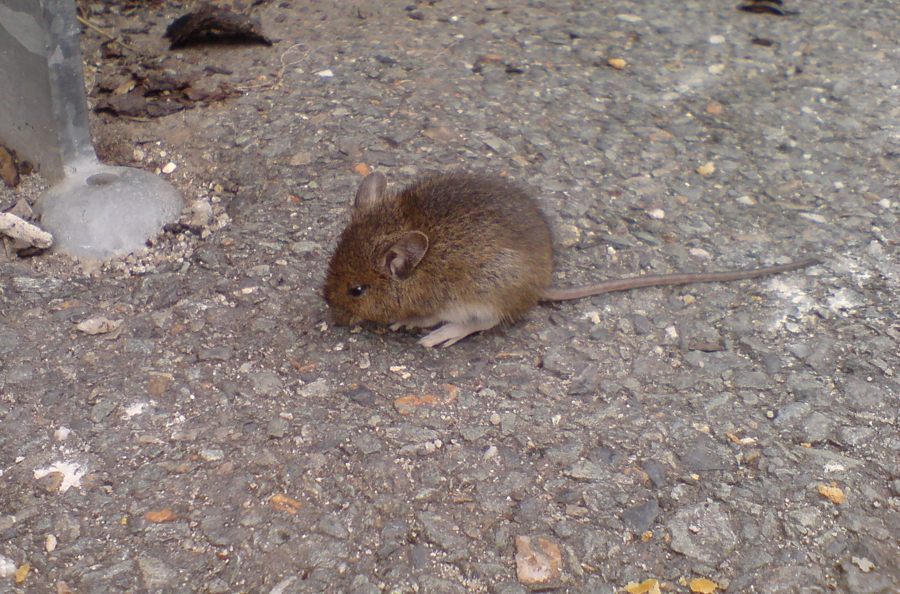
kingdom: Animalia
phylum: Chordata
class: Mammalia
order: Rodentia
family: Muridae
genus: Apodemus
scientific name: Apodemus sylvaticus
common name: Wood mouse
